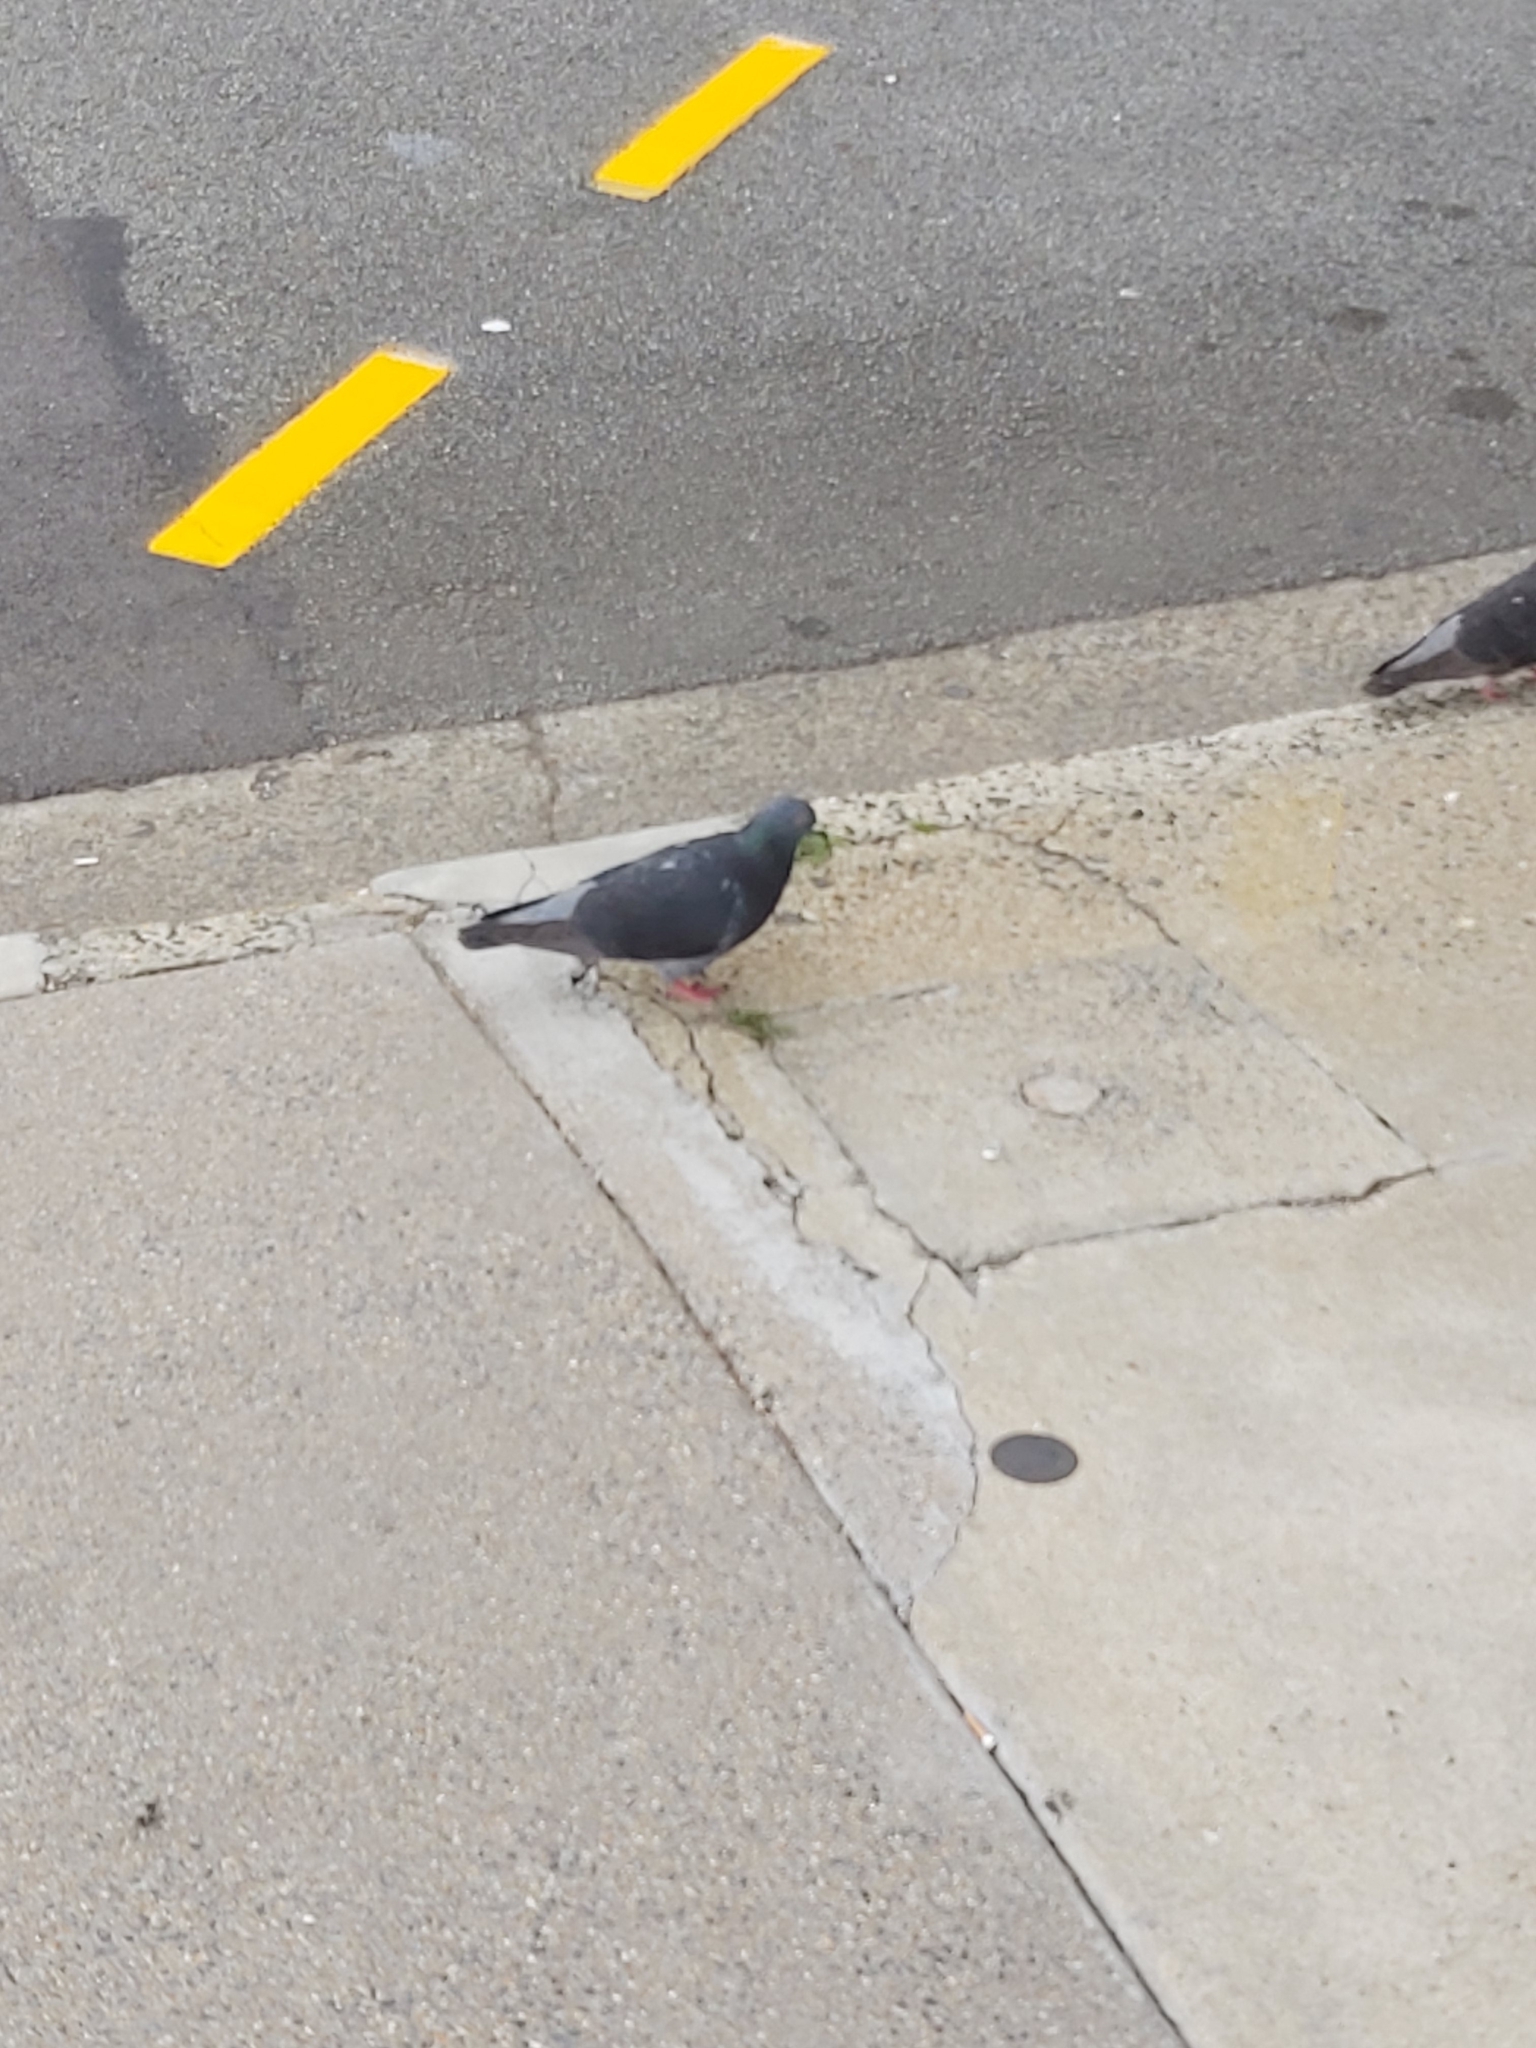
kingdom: Animalia
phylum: Chordata
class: Aves
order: Columbiformes
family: Columbidae
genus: Columba
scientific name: Columba livia
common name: Rock pigeon
